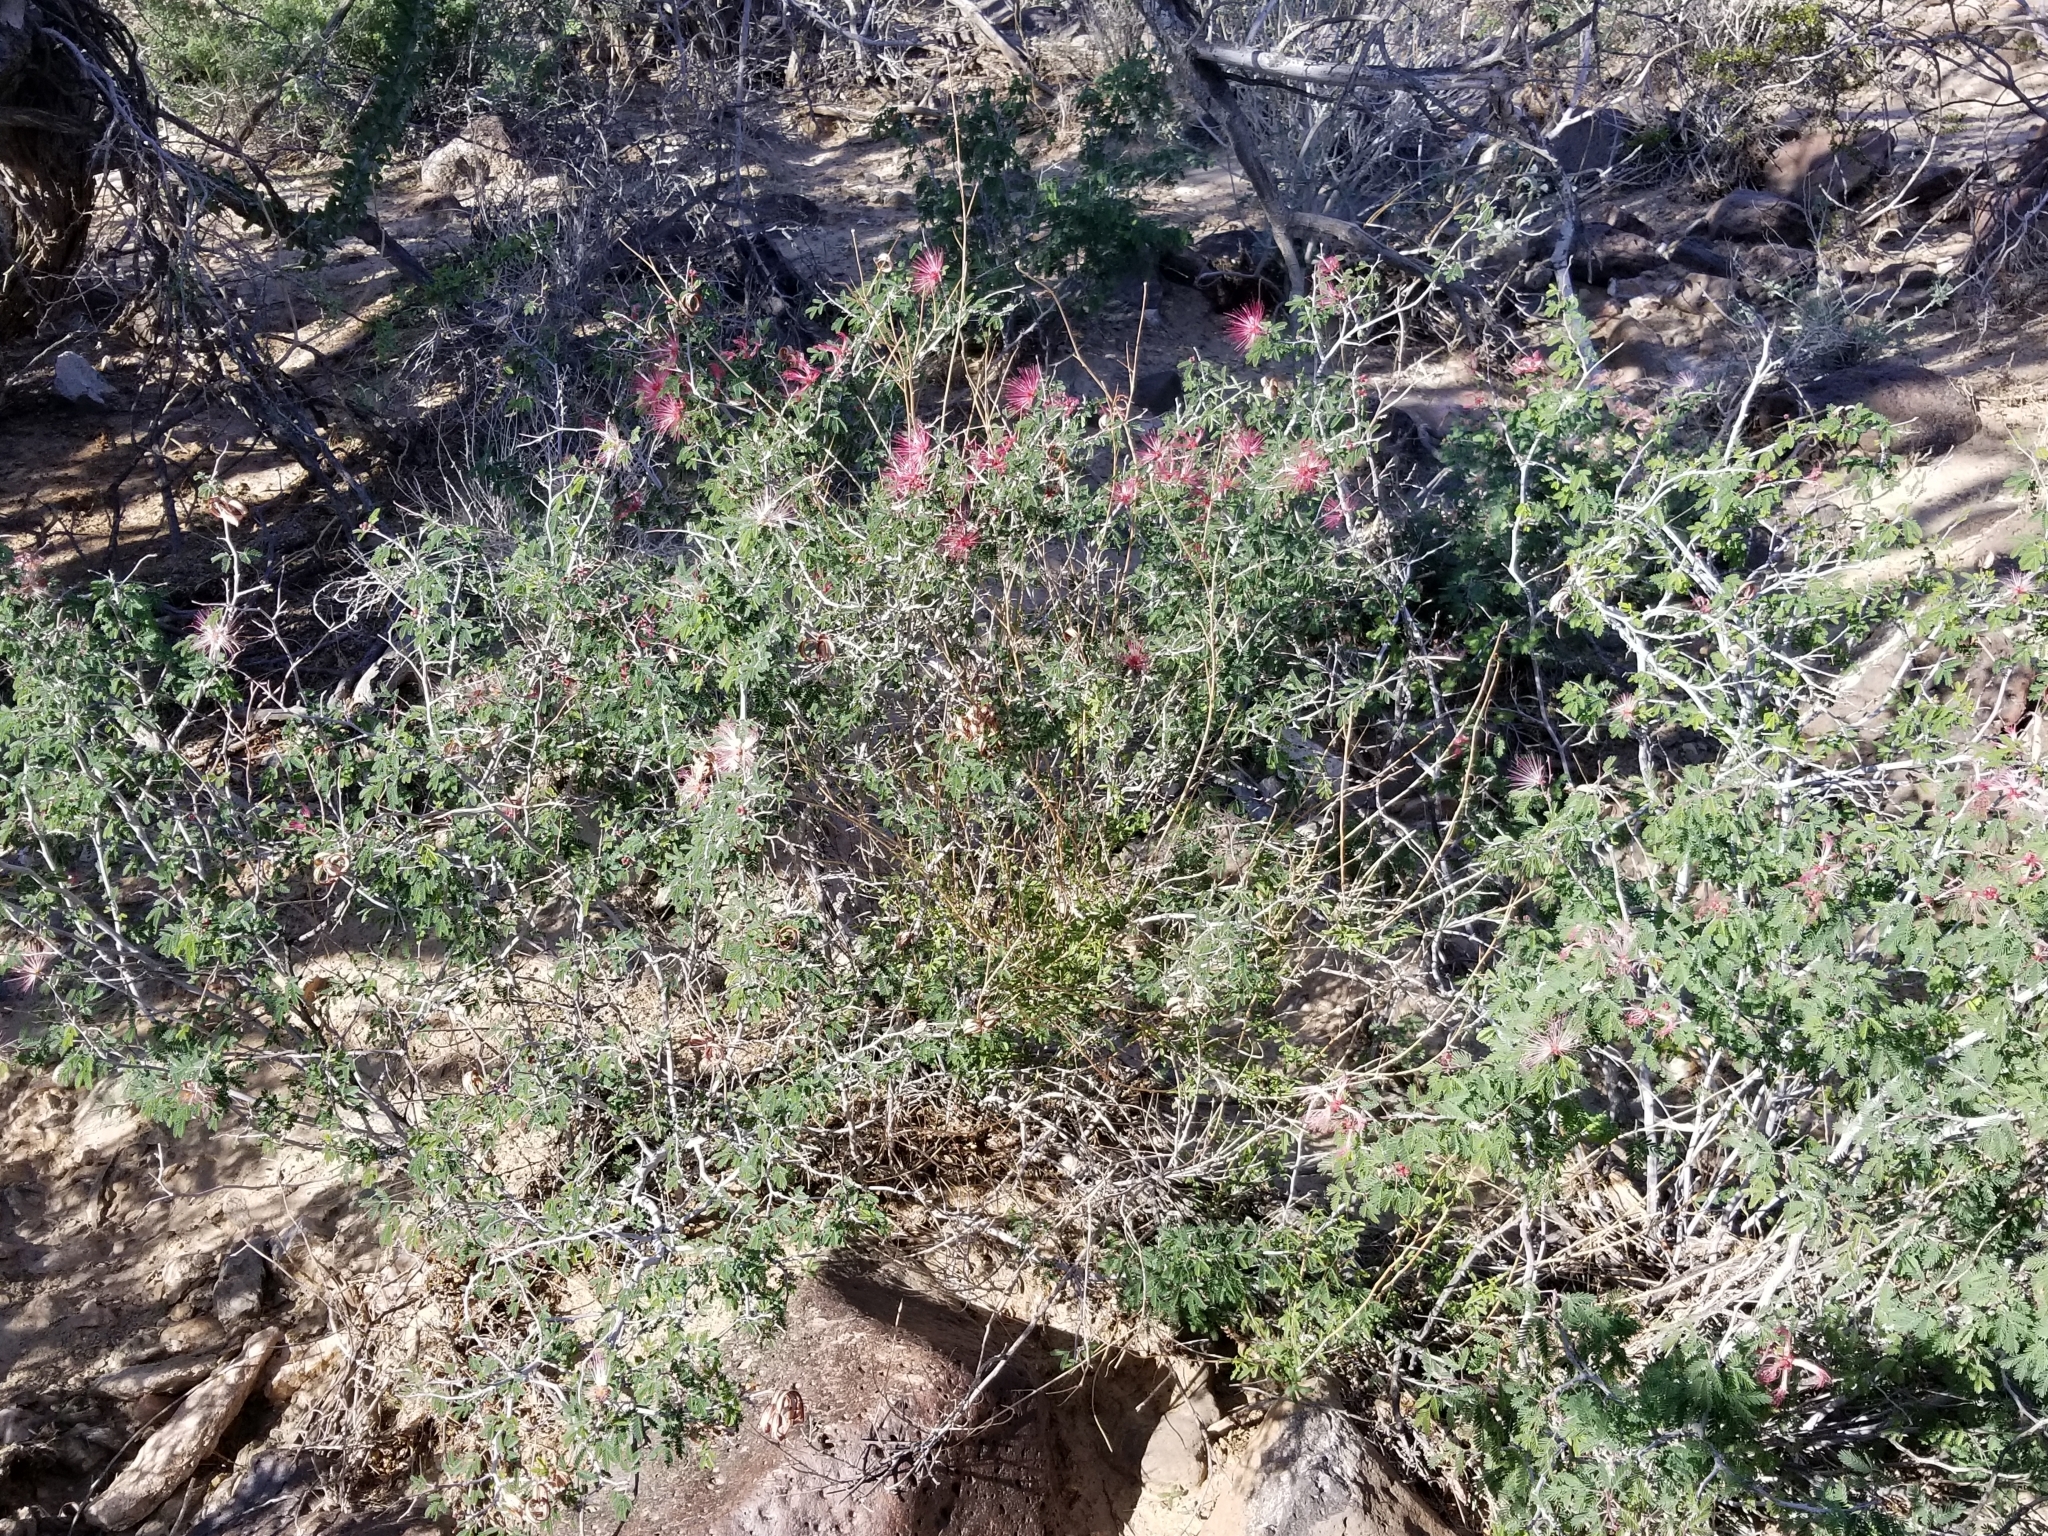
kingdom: Plantae
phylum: Tracheophyta
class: Magnoliopsida
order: Fabales
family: Fabaceae
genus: Calliandra
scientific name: Calliandra eriophylla
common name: Fairy-duster
